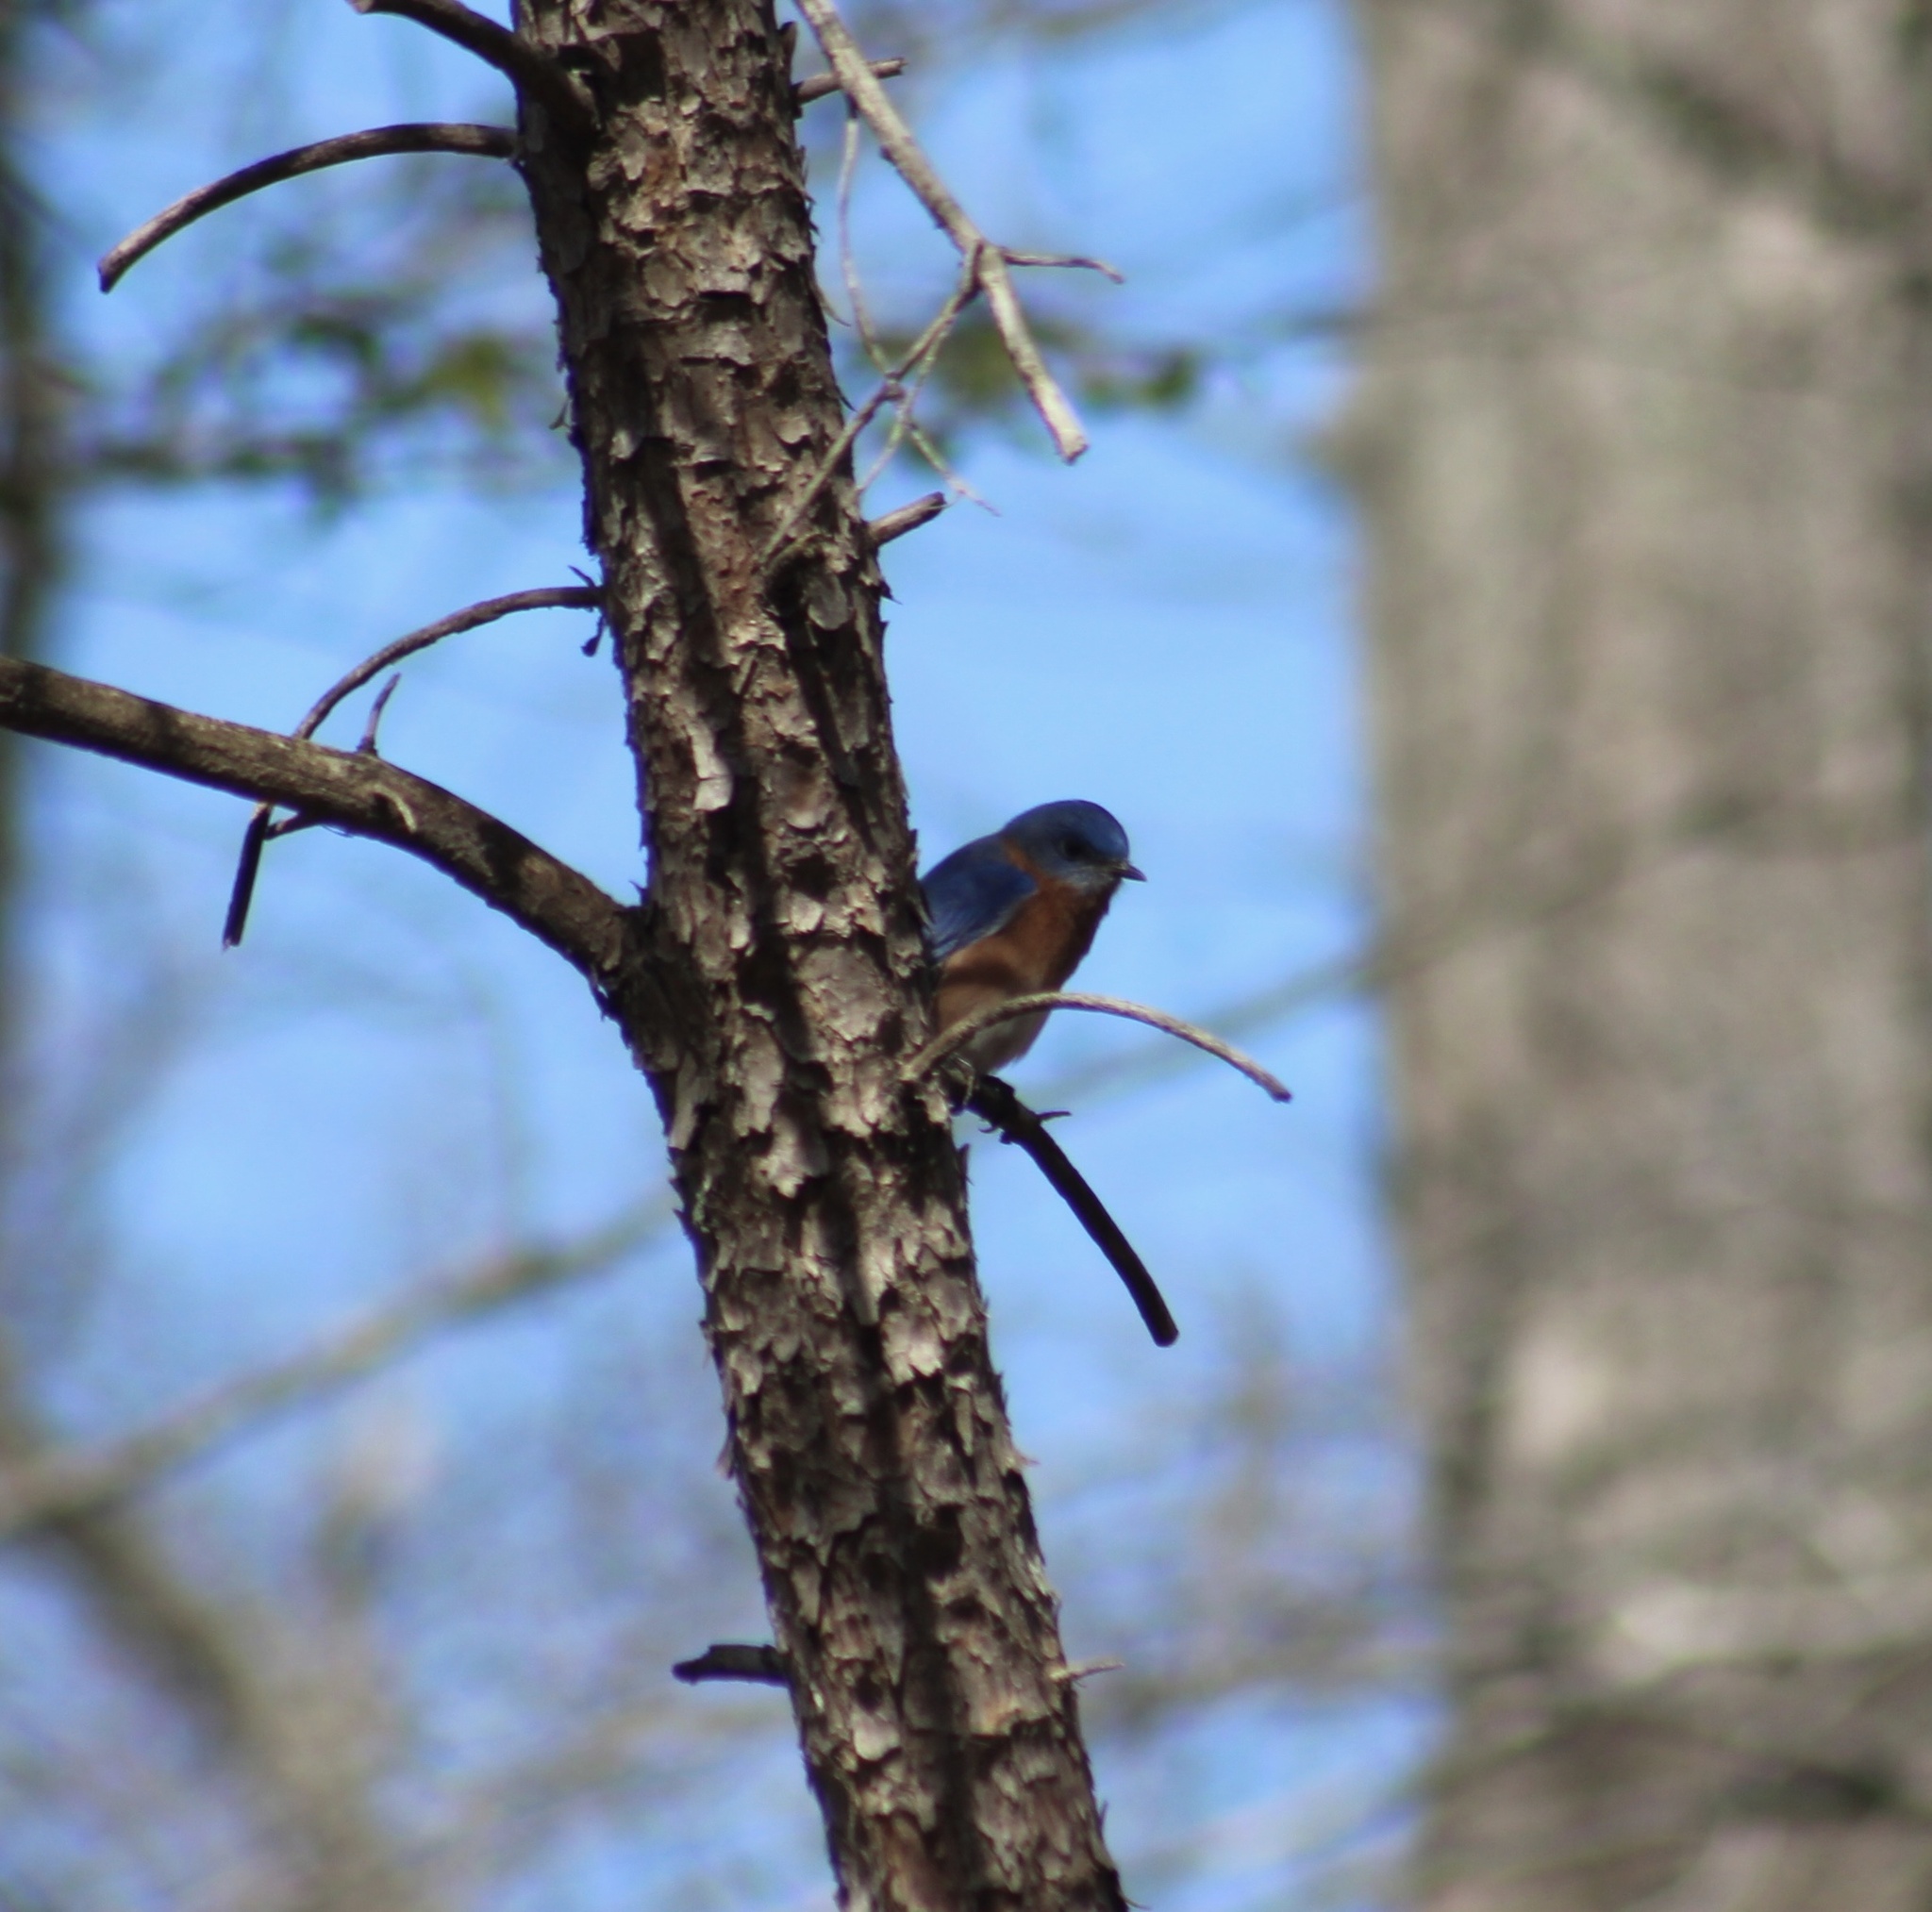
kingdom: Animalia
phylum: Chordata
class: Aves
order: Passeriformes
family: Turdidae
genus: Sialia
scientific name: Sialia sialis
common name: Eastern bluebird
